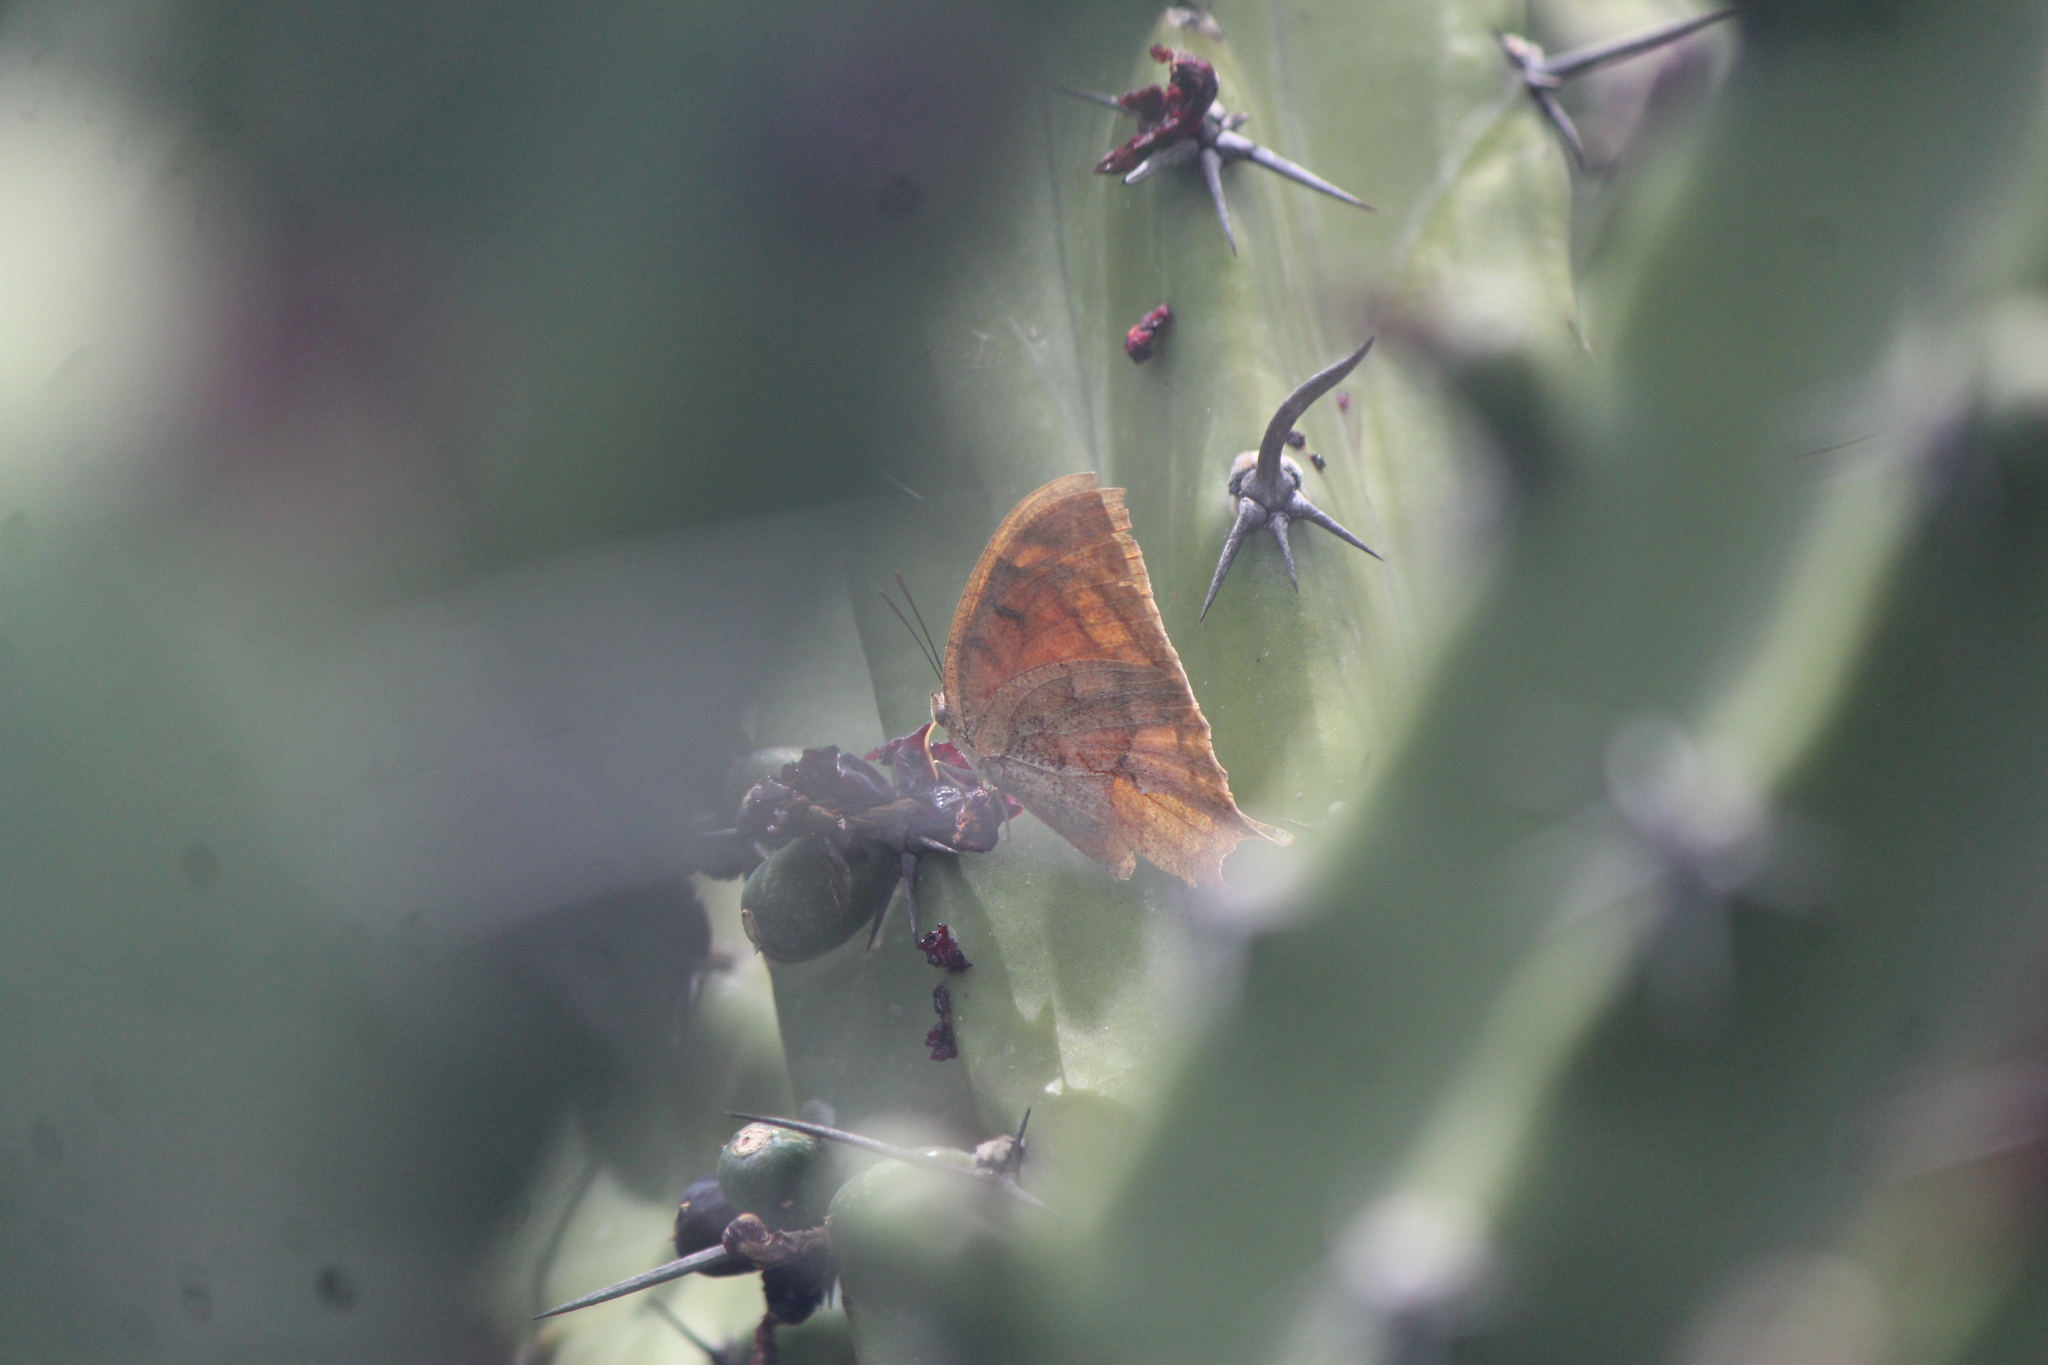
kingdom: Animalia
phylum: Arthropoda
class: Insecta
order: Lepidoptera
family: Nymphalidae
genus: Anaea
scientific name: Anaea aidea
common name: Tropical leafwing
